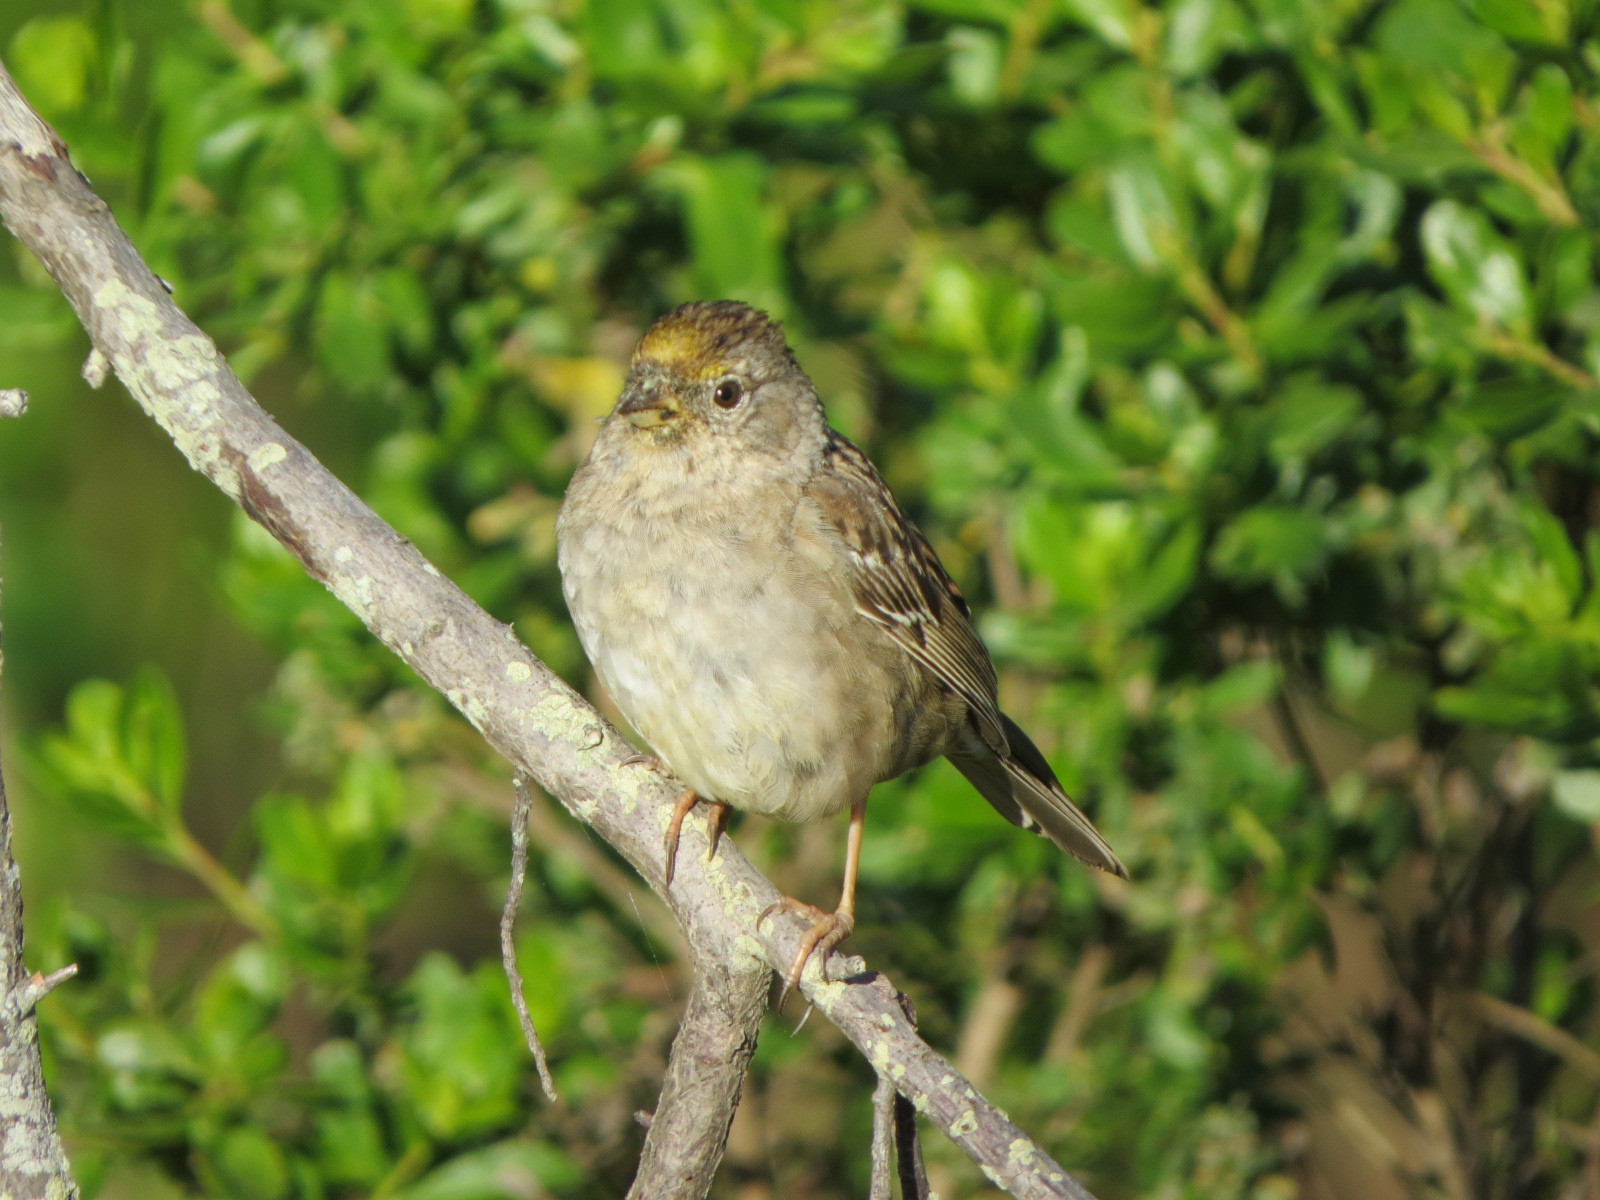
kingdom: Animalia
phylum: Chordata
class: Aves
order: Passeriformes
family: Passerellidae
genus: Zonotrichia
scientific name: Zonotrichia atricapilla
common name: Golden-crowned sparrow
